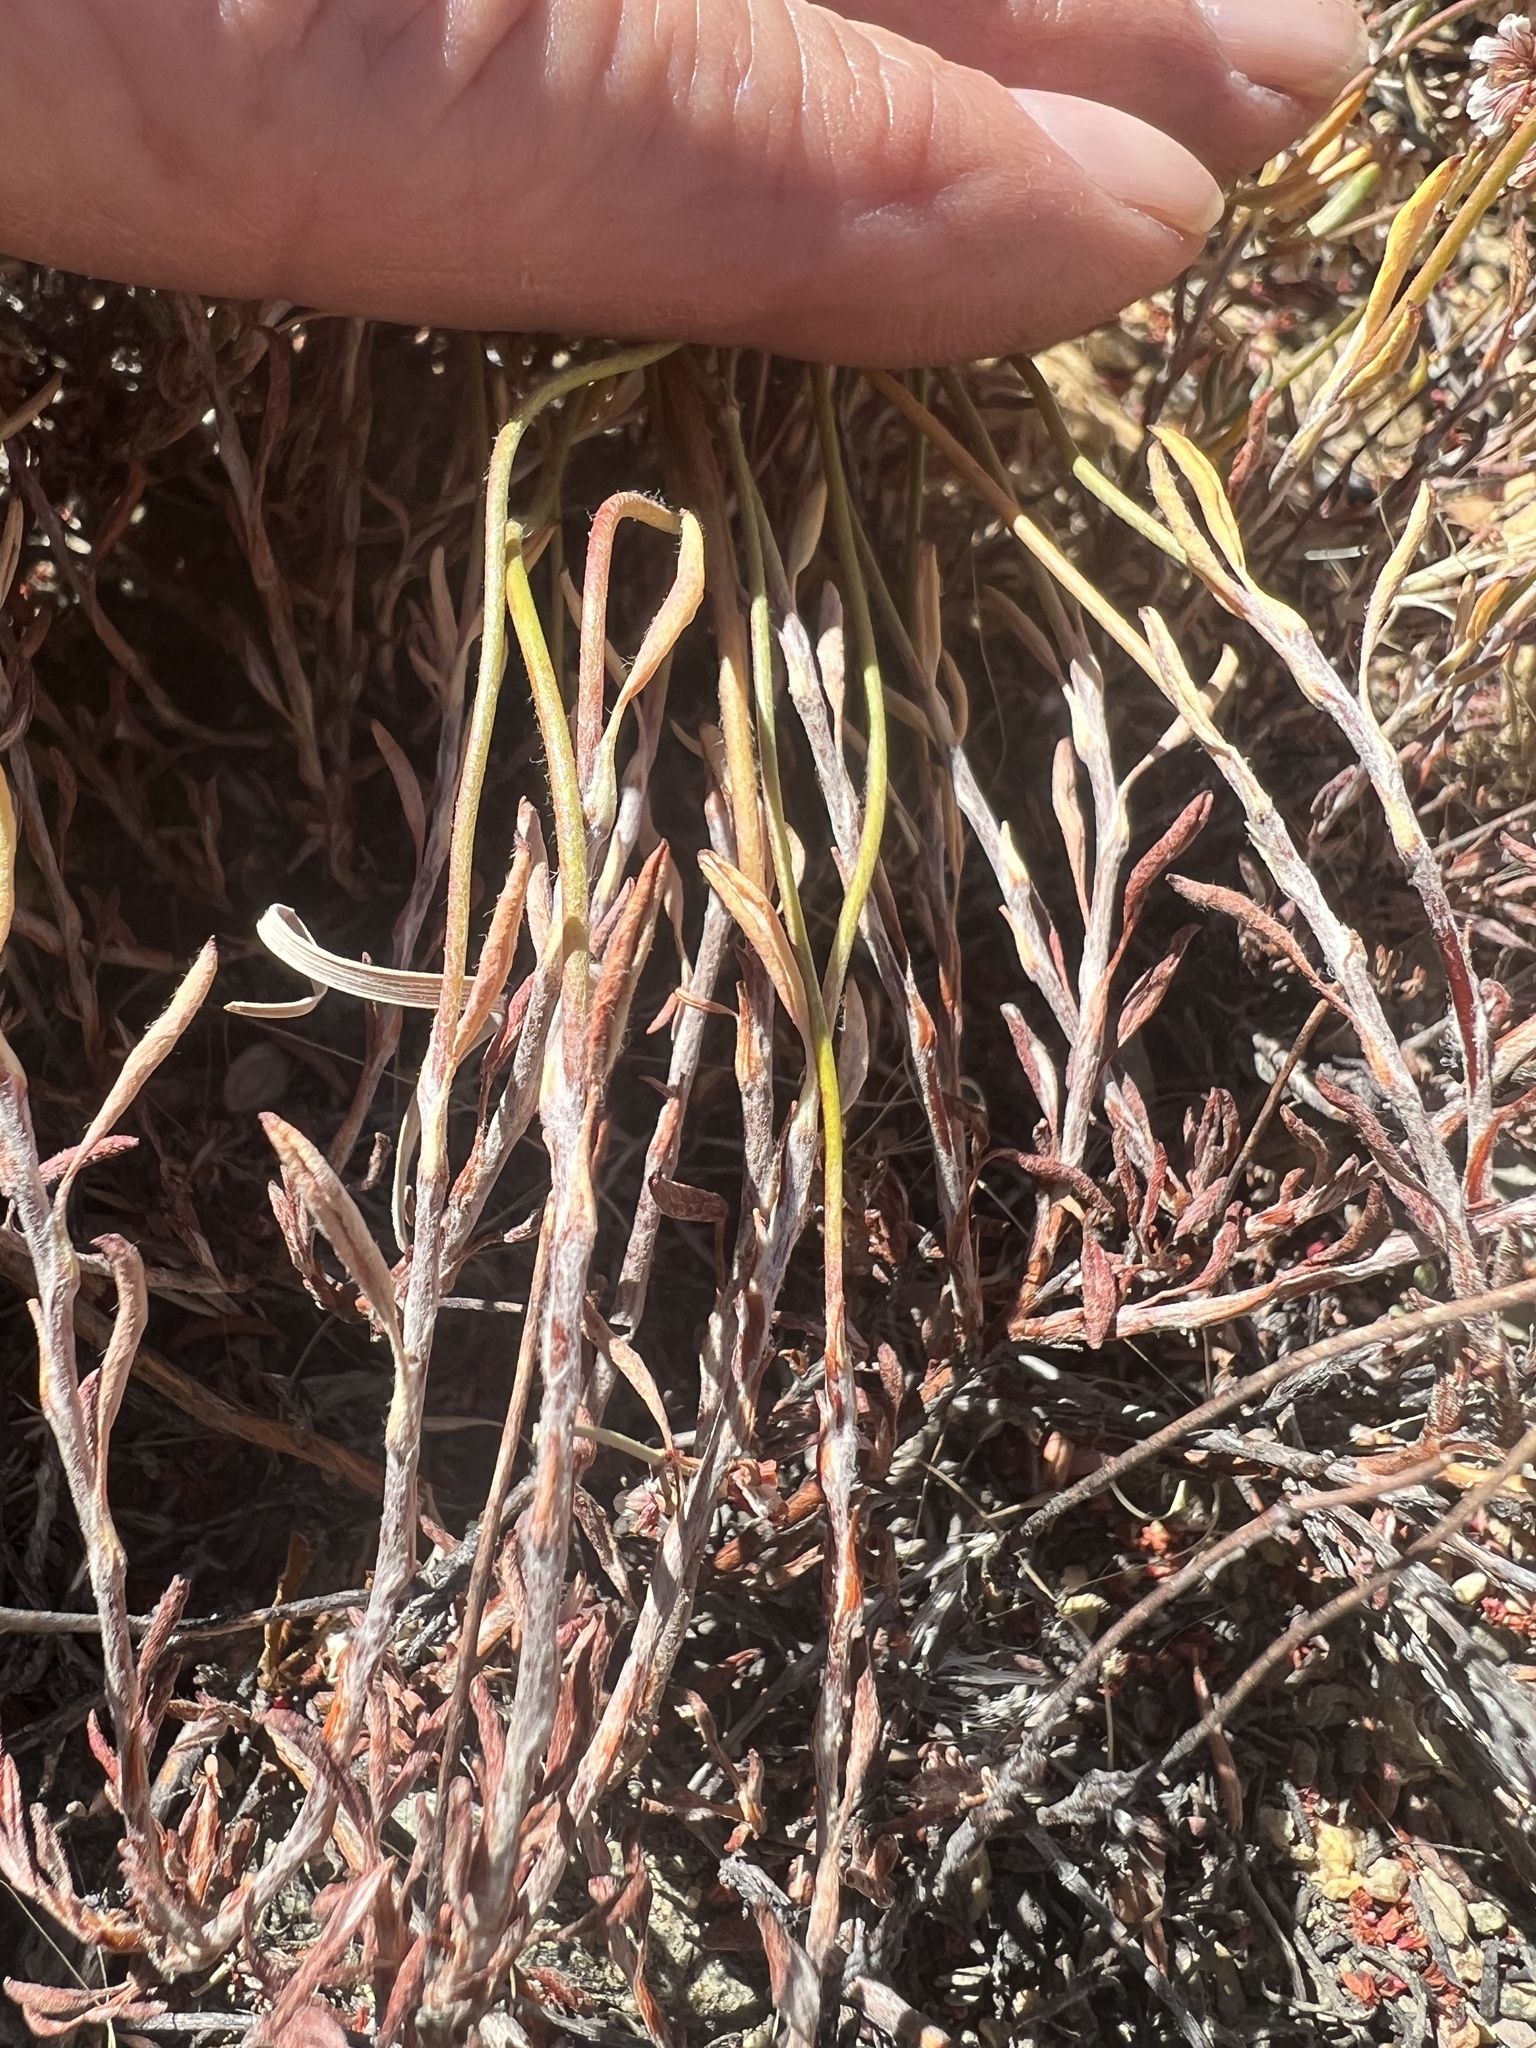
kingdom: Plantae
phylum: Tracheophyta
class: Magnoliopsida
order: Caryophyllales
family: Polygonaceae
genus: Eriogonum
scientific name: Eriogonum microtheca
